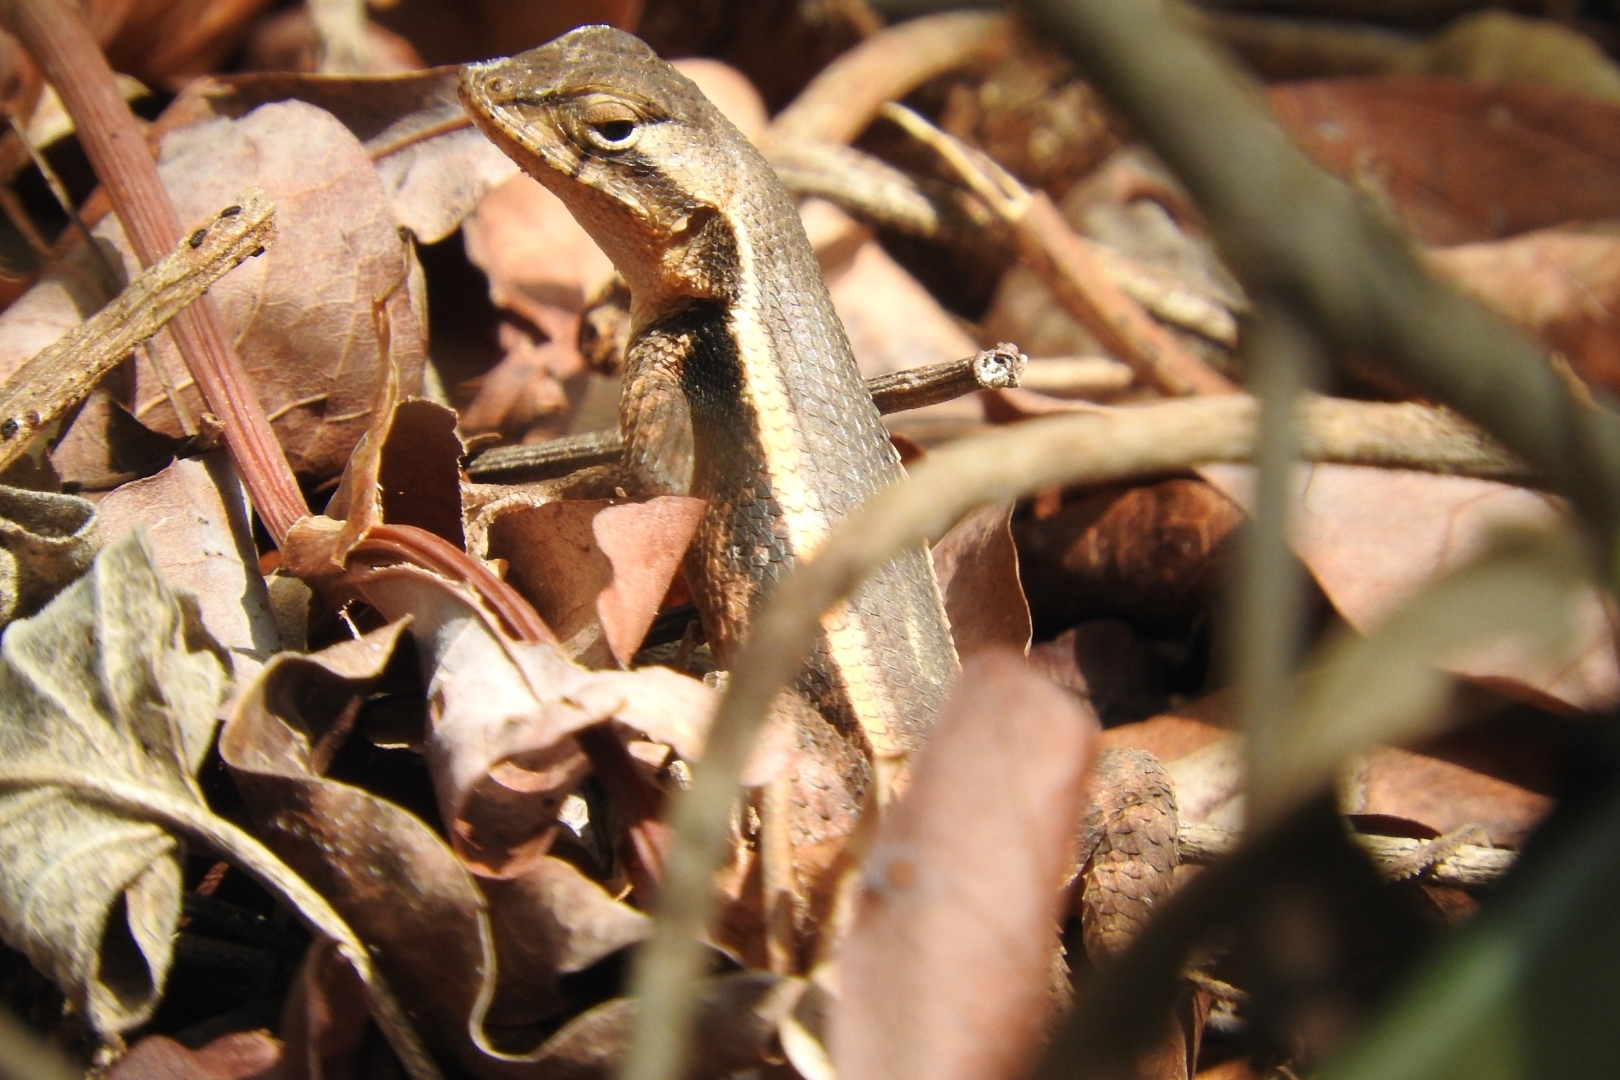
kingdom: Animalia
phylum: Chordata
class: Squamata
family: Phrynosomatidae
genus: Sceloporus
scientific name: Sceloporus chrysostictus
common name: Yellow-spotted spiny lizard
